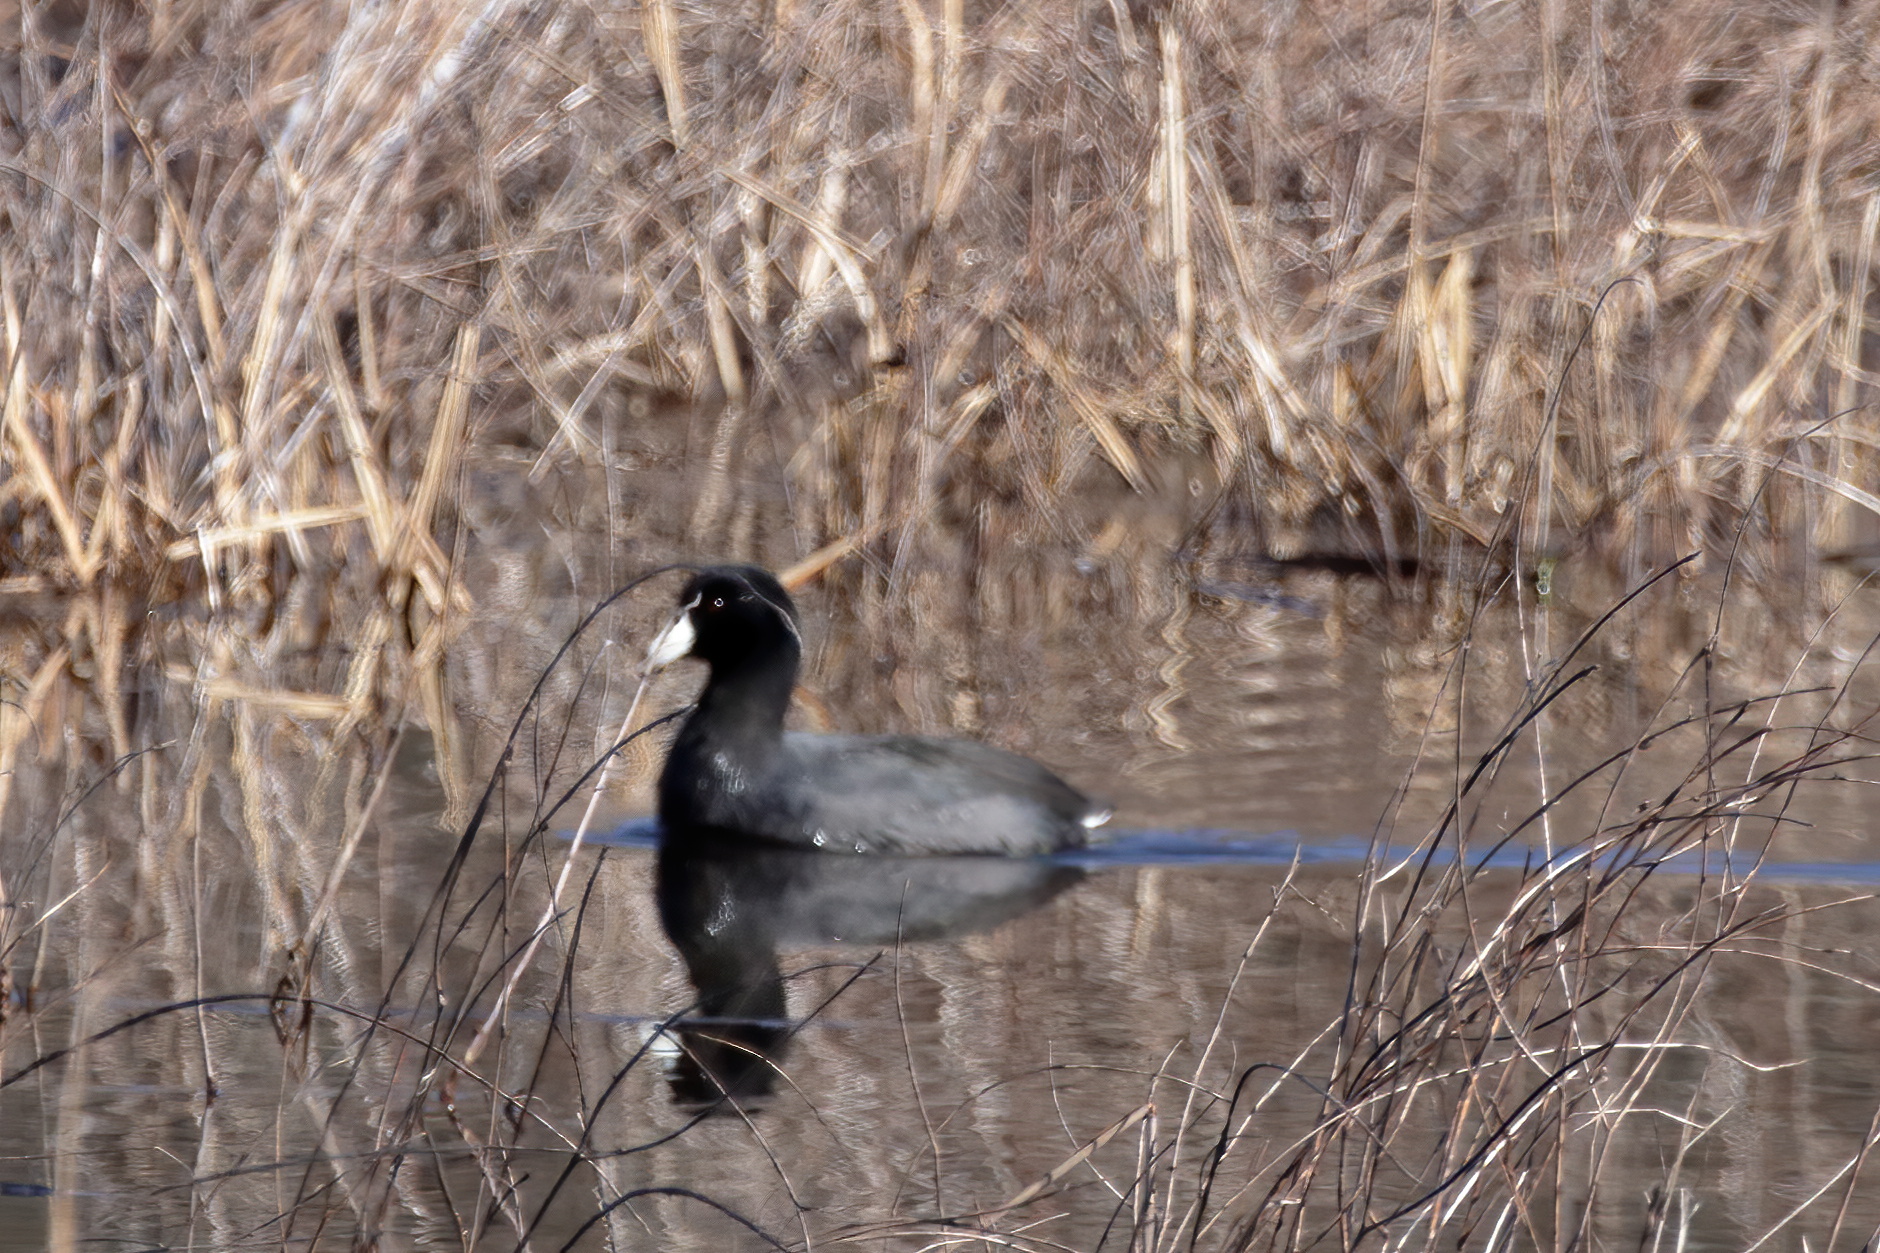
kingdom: Animalia
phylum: Chordata
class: Aves
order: Gruiformes
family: Rallidae
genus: Fulica
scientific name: Fulica americana
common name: American coot
